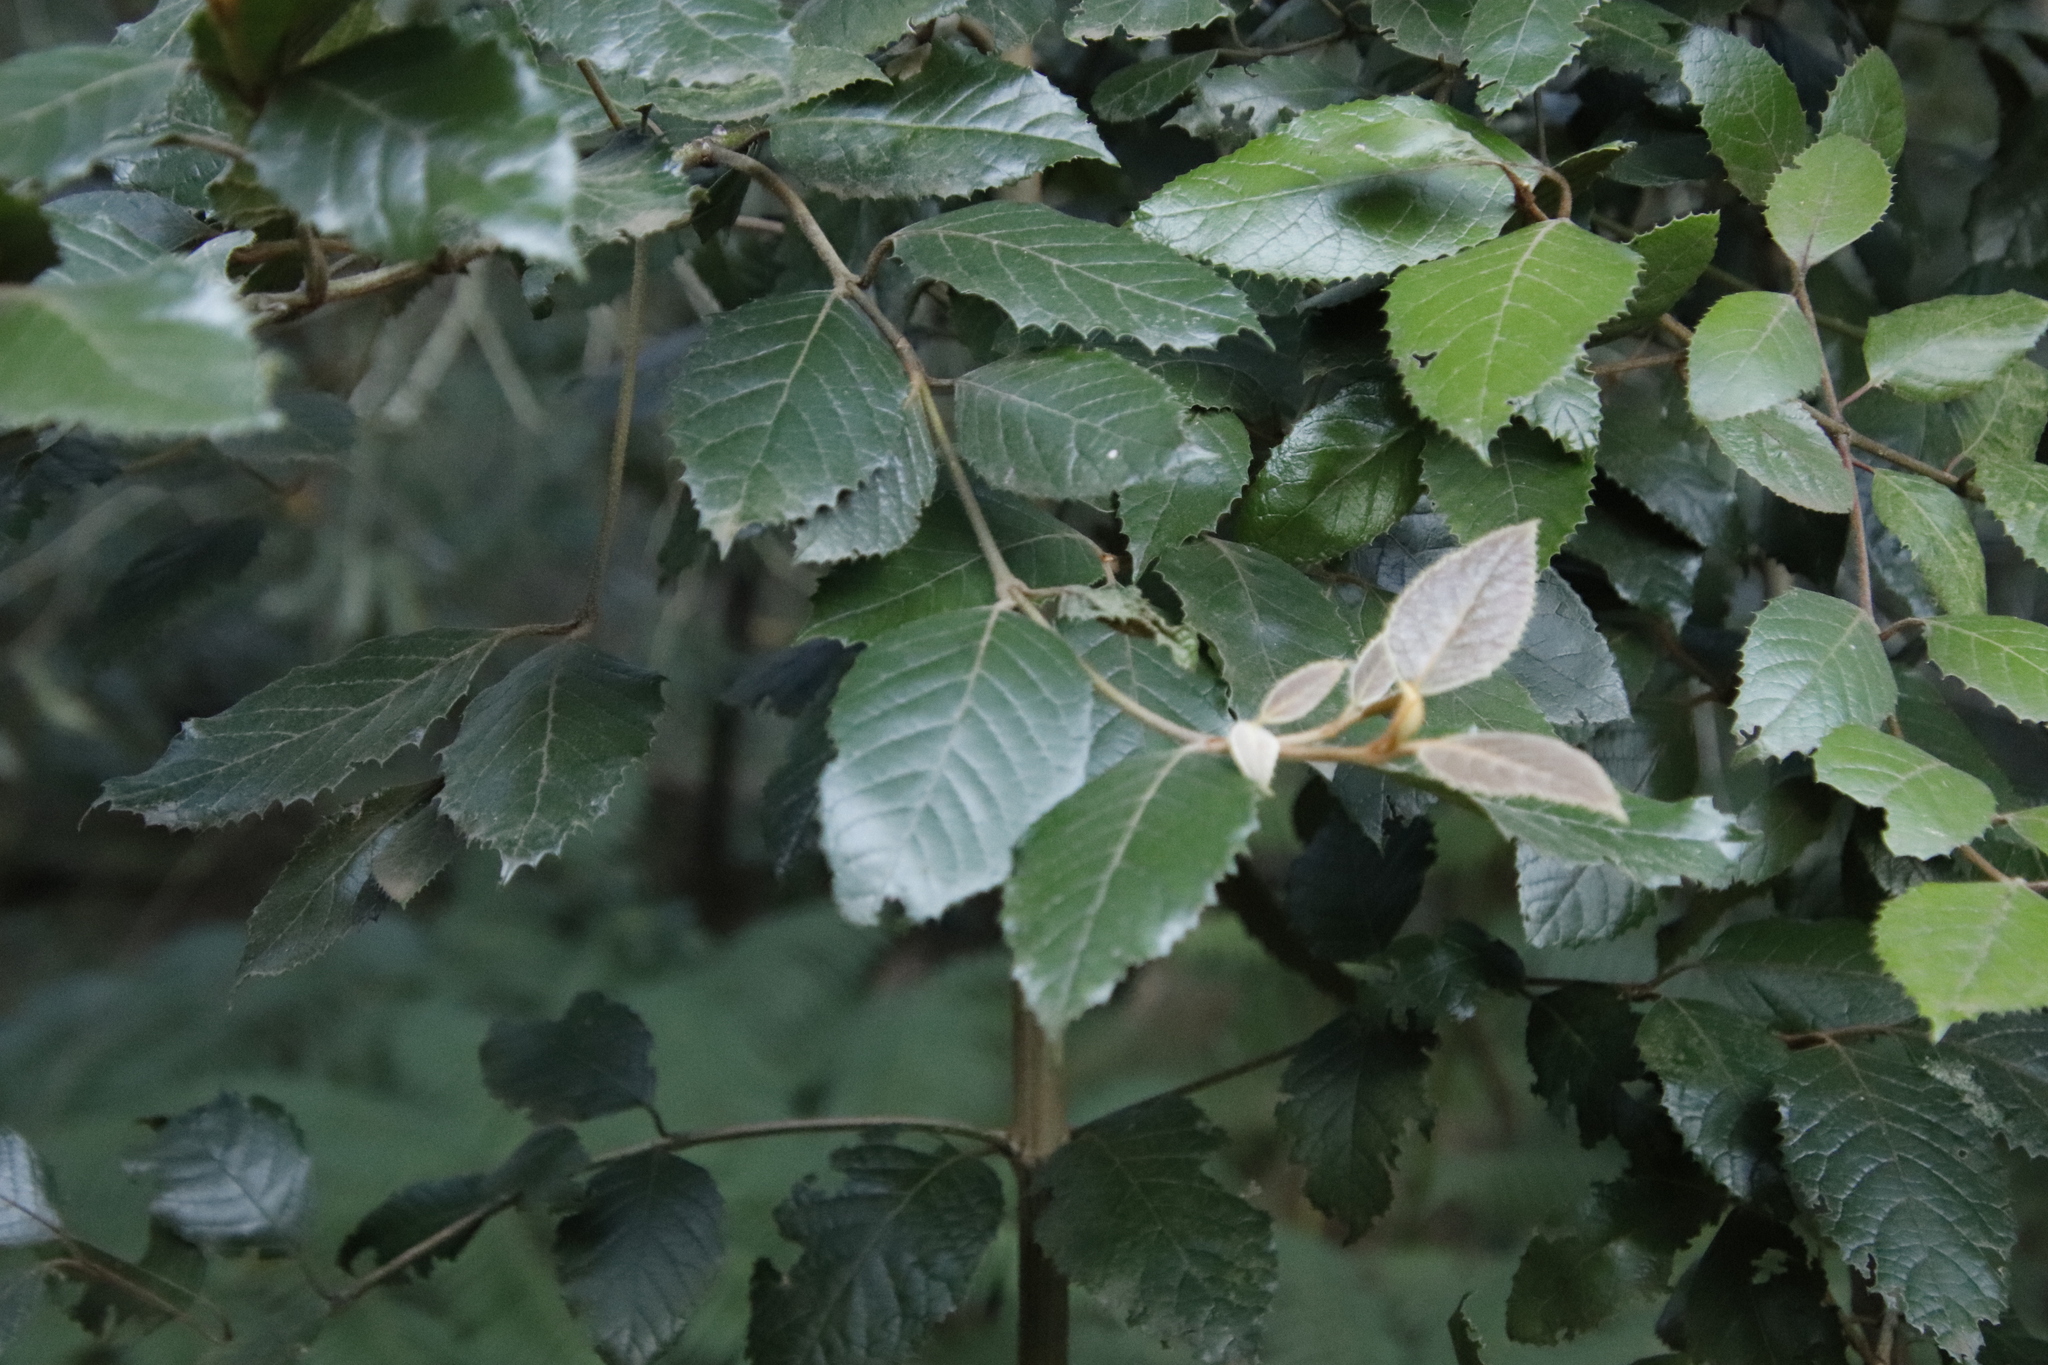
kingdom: Plantae
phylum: Tracheophyta
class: Magnoliopsida
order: Cornales
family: Curtisiaceae
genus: Curtisia
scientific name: Curtisia dentata
